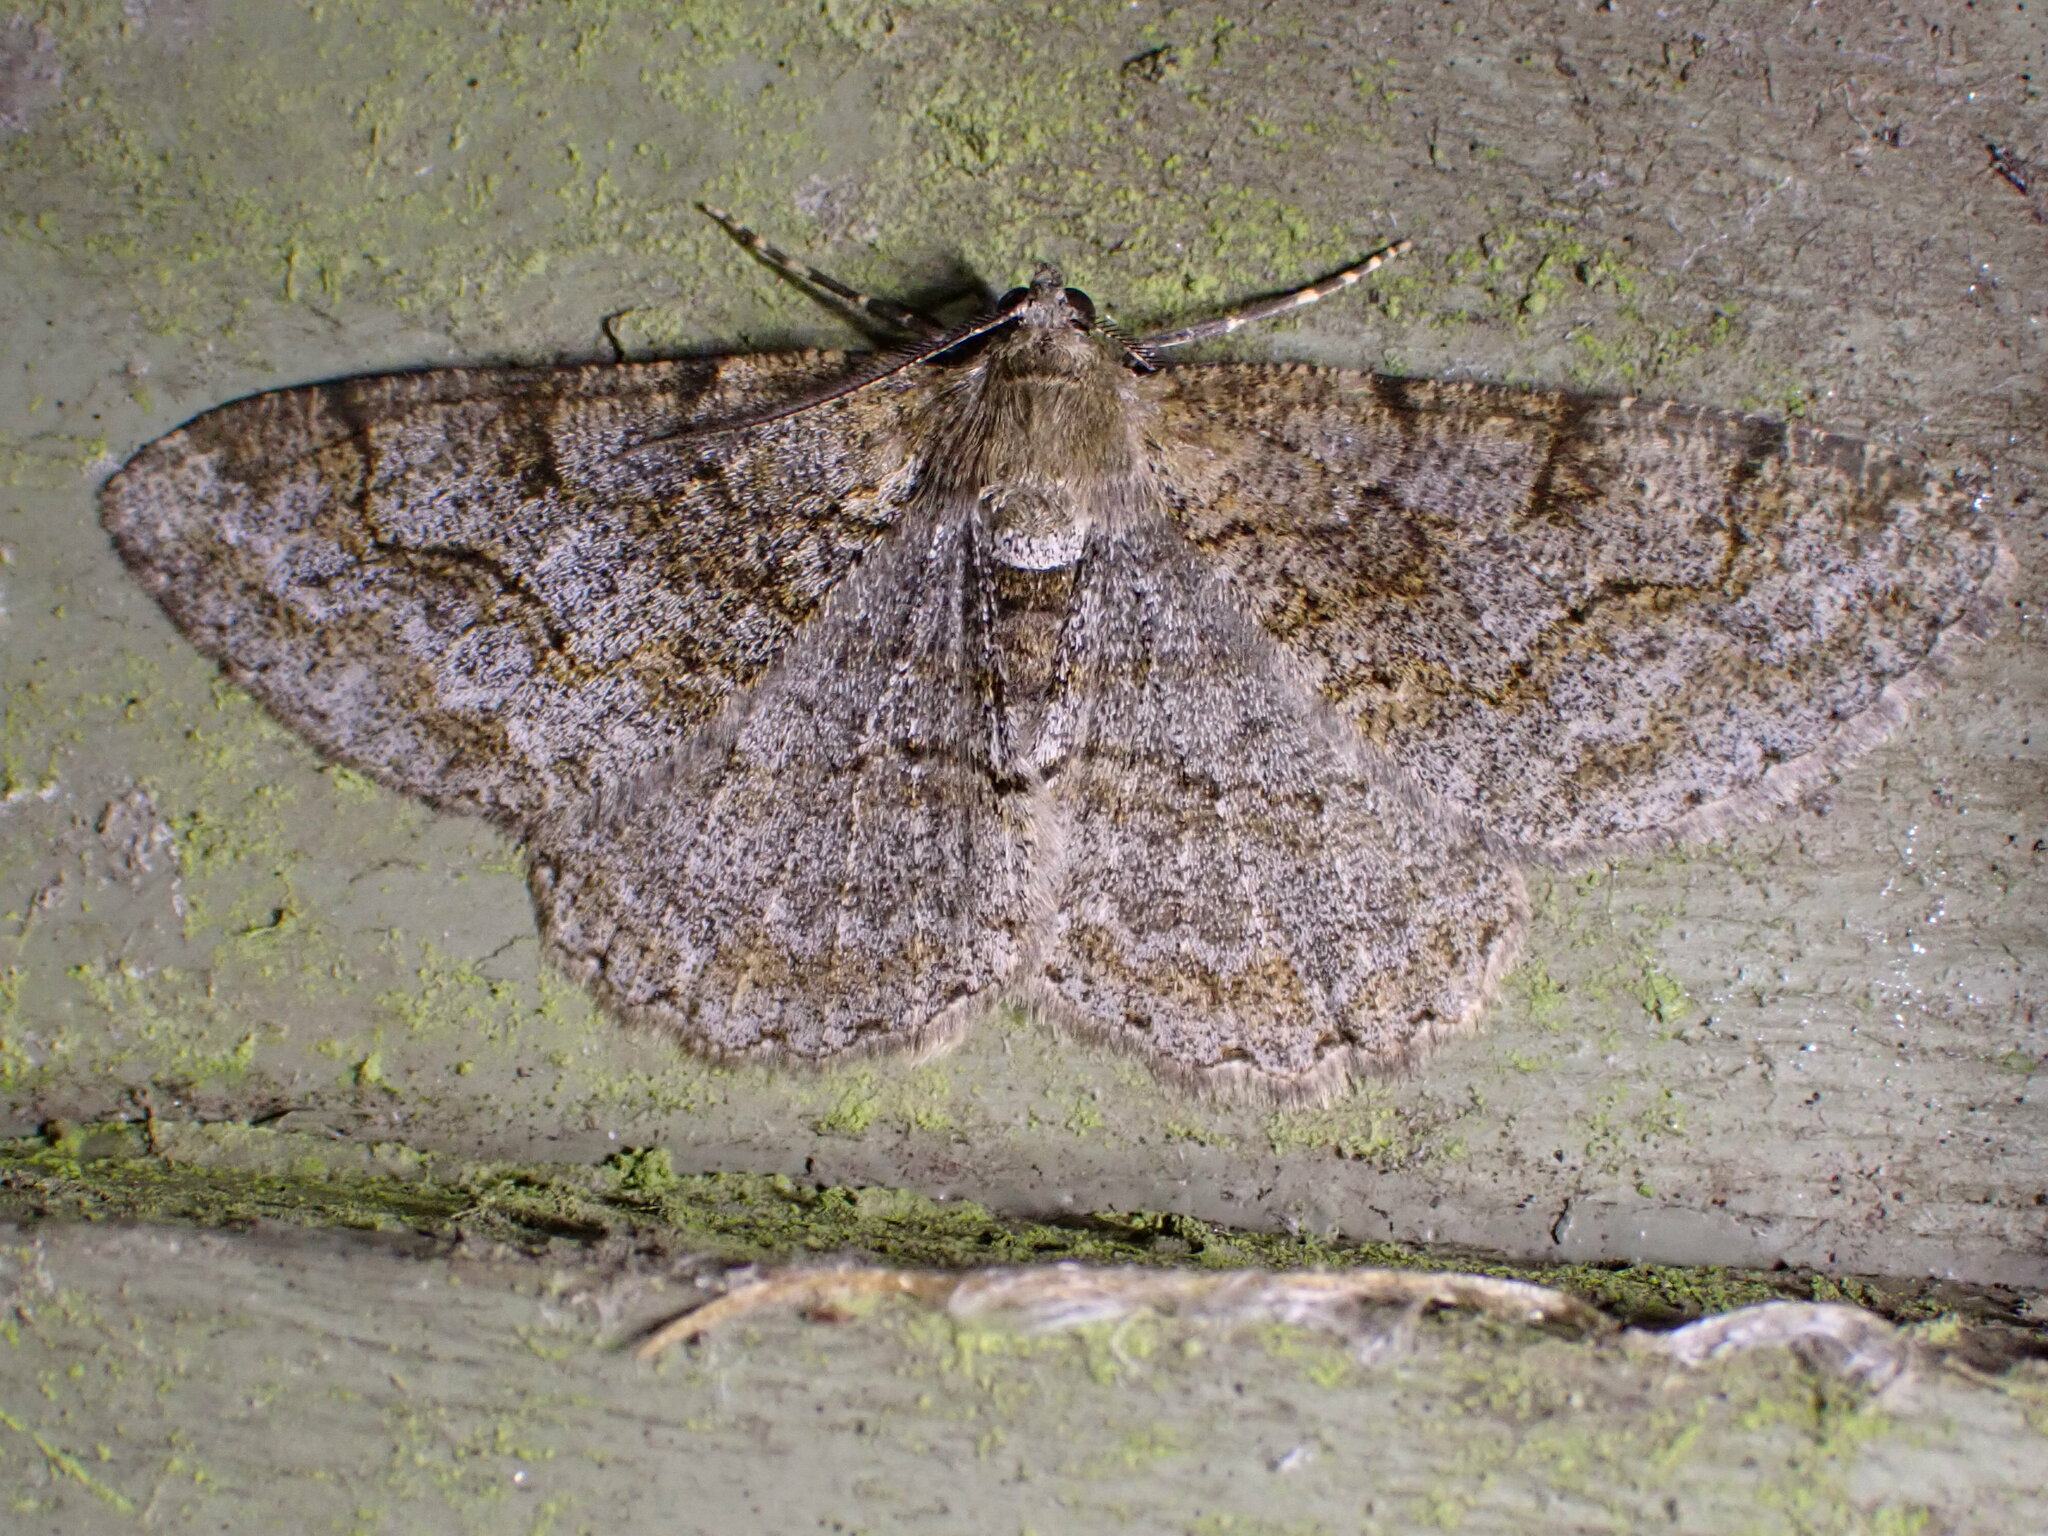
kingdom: Animalia
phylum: Arthropoda
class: Insecta
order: Lepidoptera
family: Geometridae
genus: Alcis
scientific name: Alcis repandata
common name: Mottled beauty
